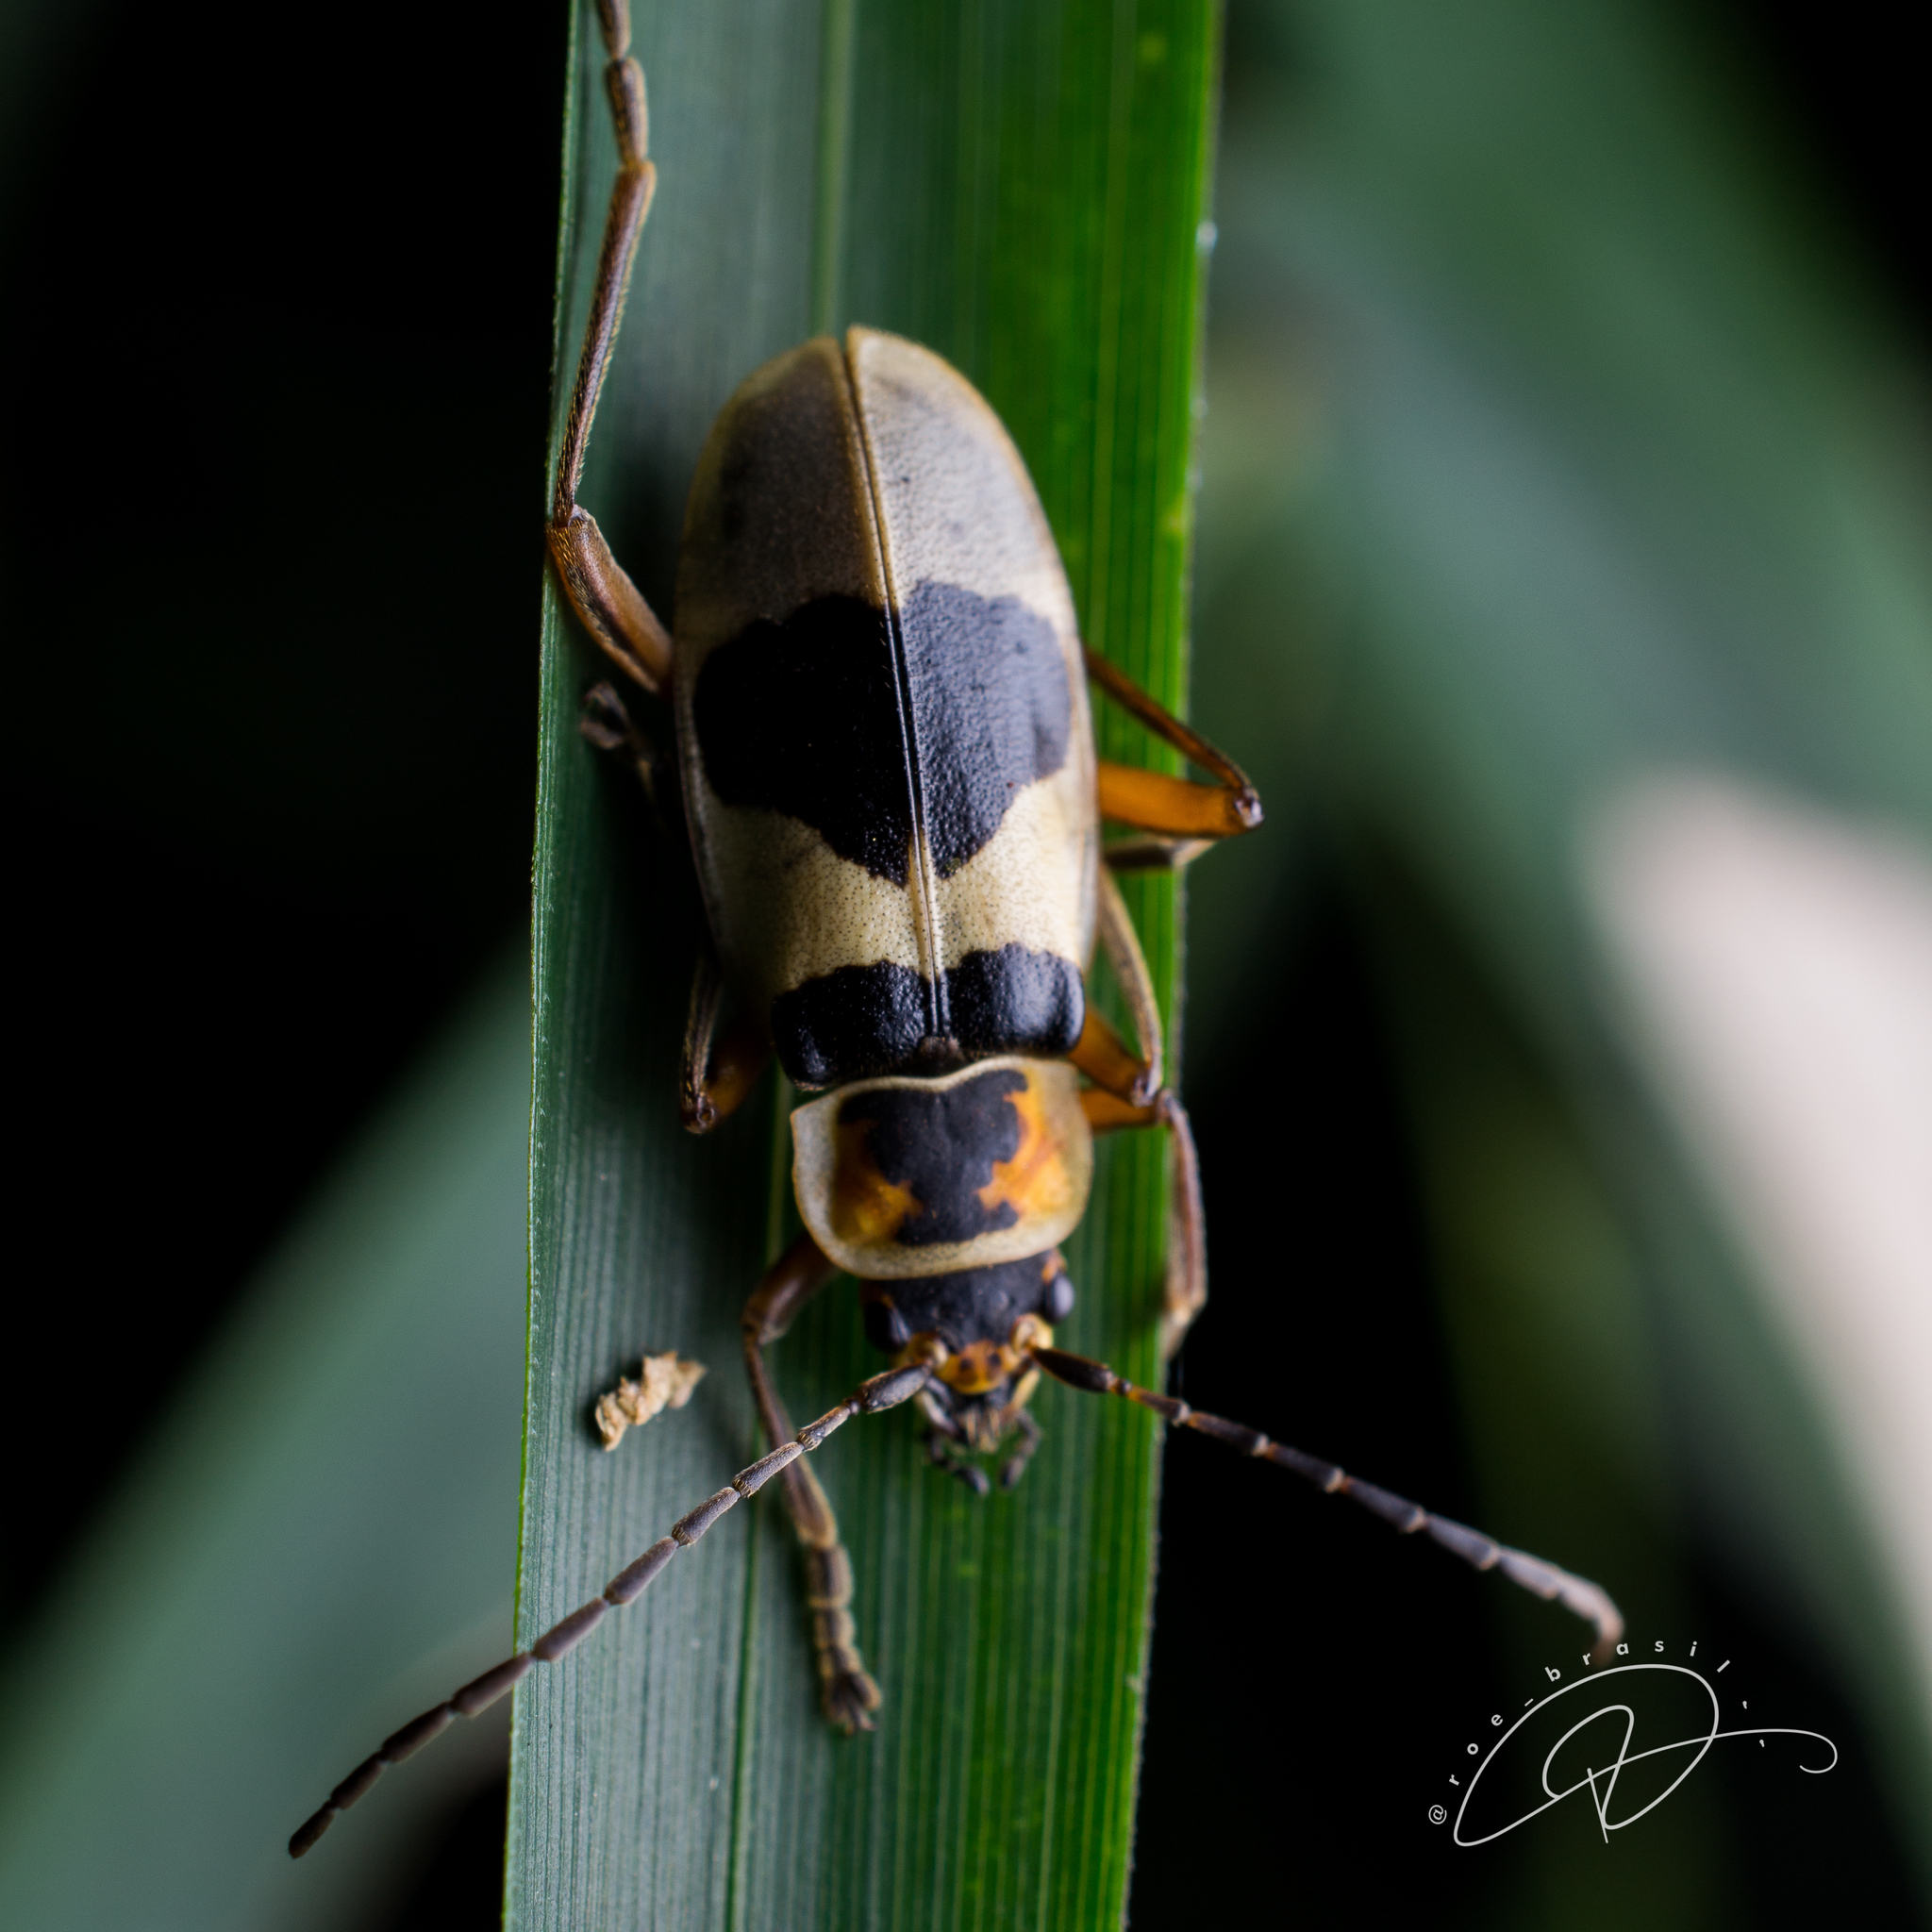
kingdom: Animalia
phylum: Arthropoda
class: Insecta
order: Coleoptera
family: Cantharidae
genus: Chauliognathus
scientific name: Chauliognathus
